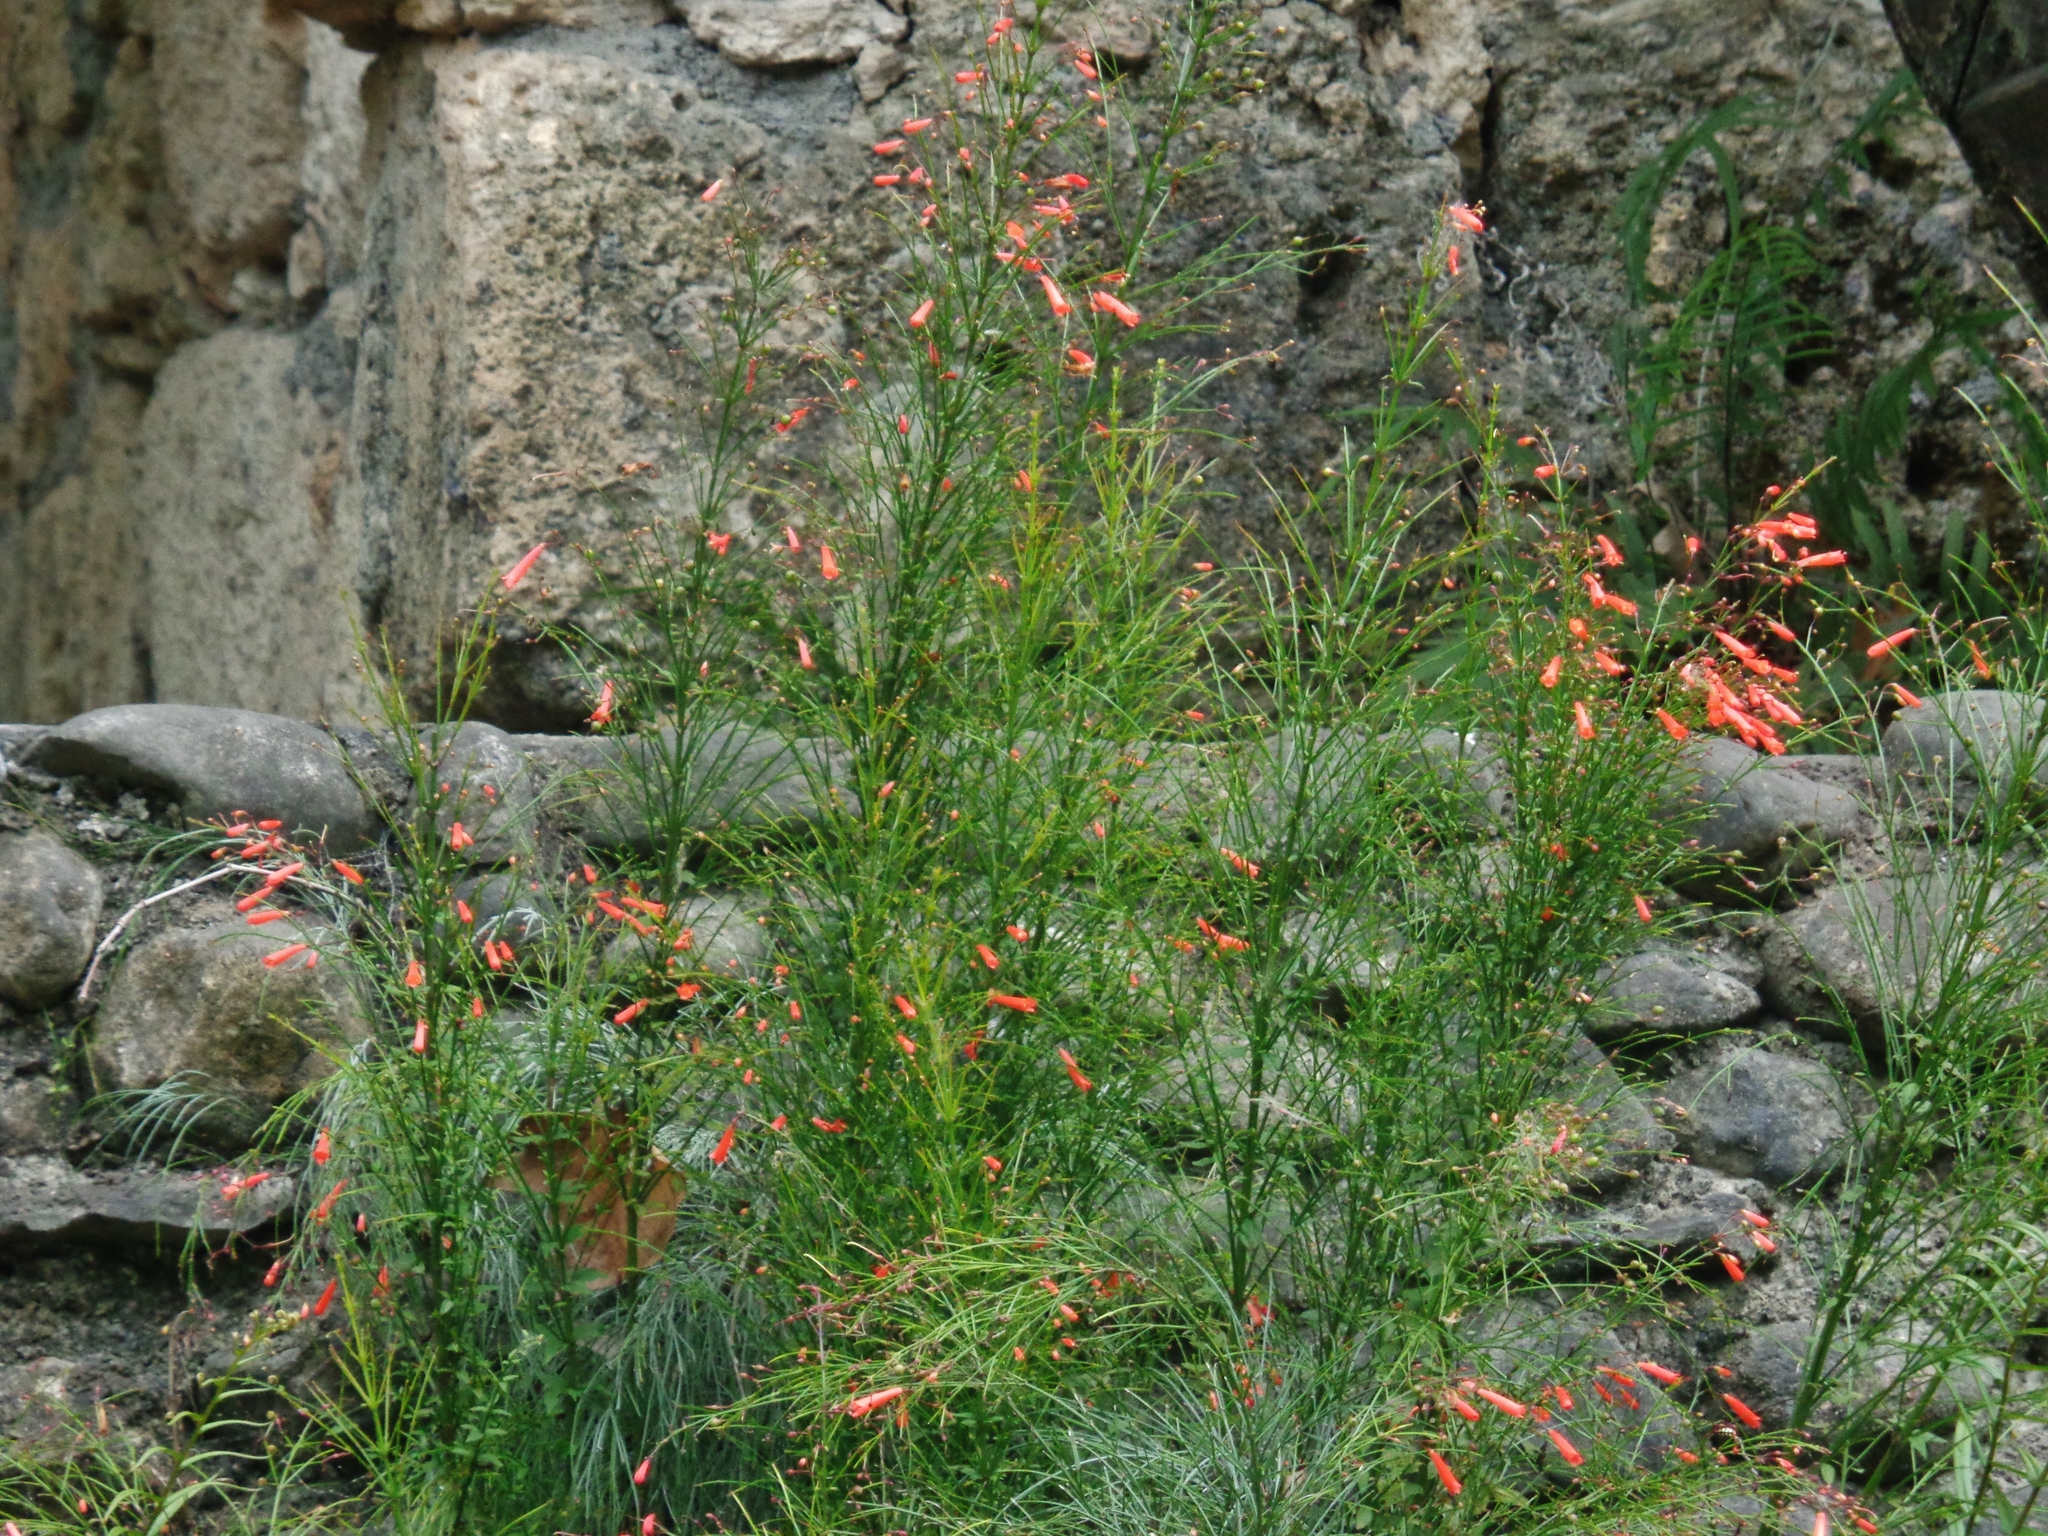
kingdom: Plantae
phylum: Tracheophyta
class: Magnoliopsida
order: Lamiales
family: Plantaginaceae
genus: Russelia
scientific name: Russelia equisetiformis
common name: Fountainbush
